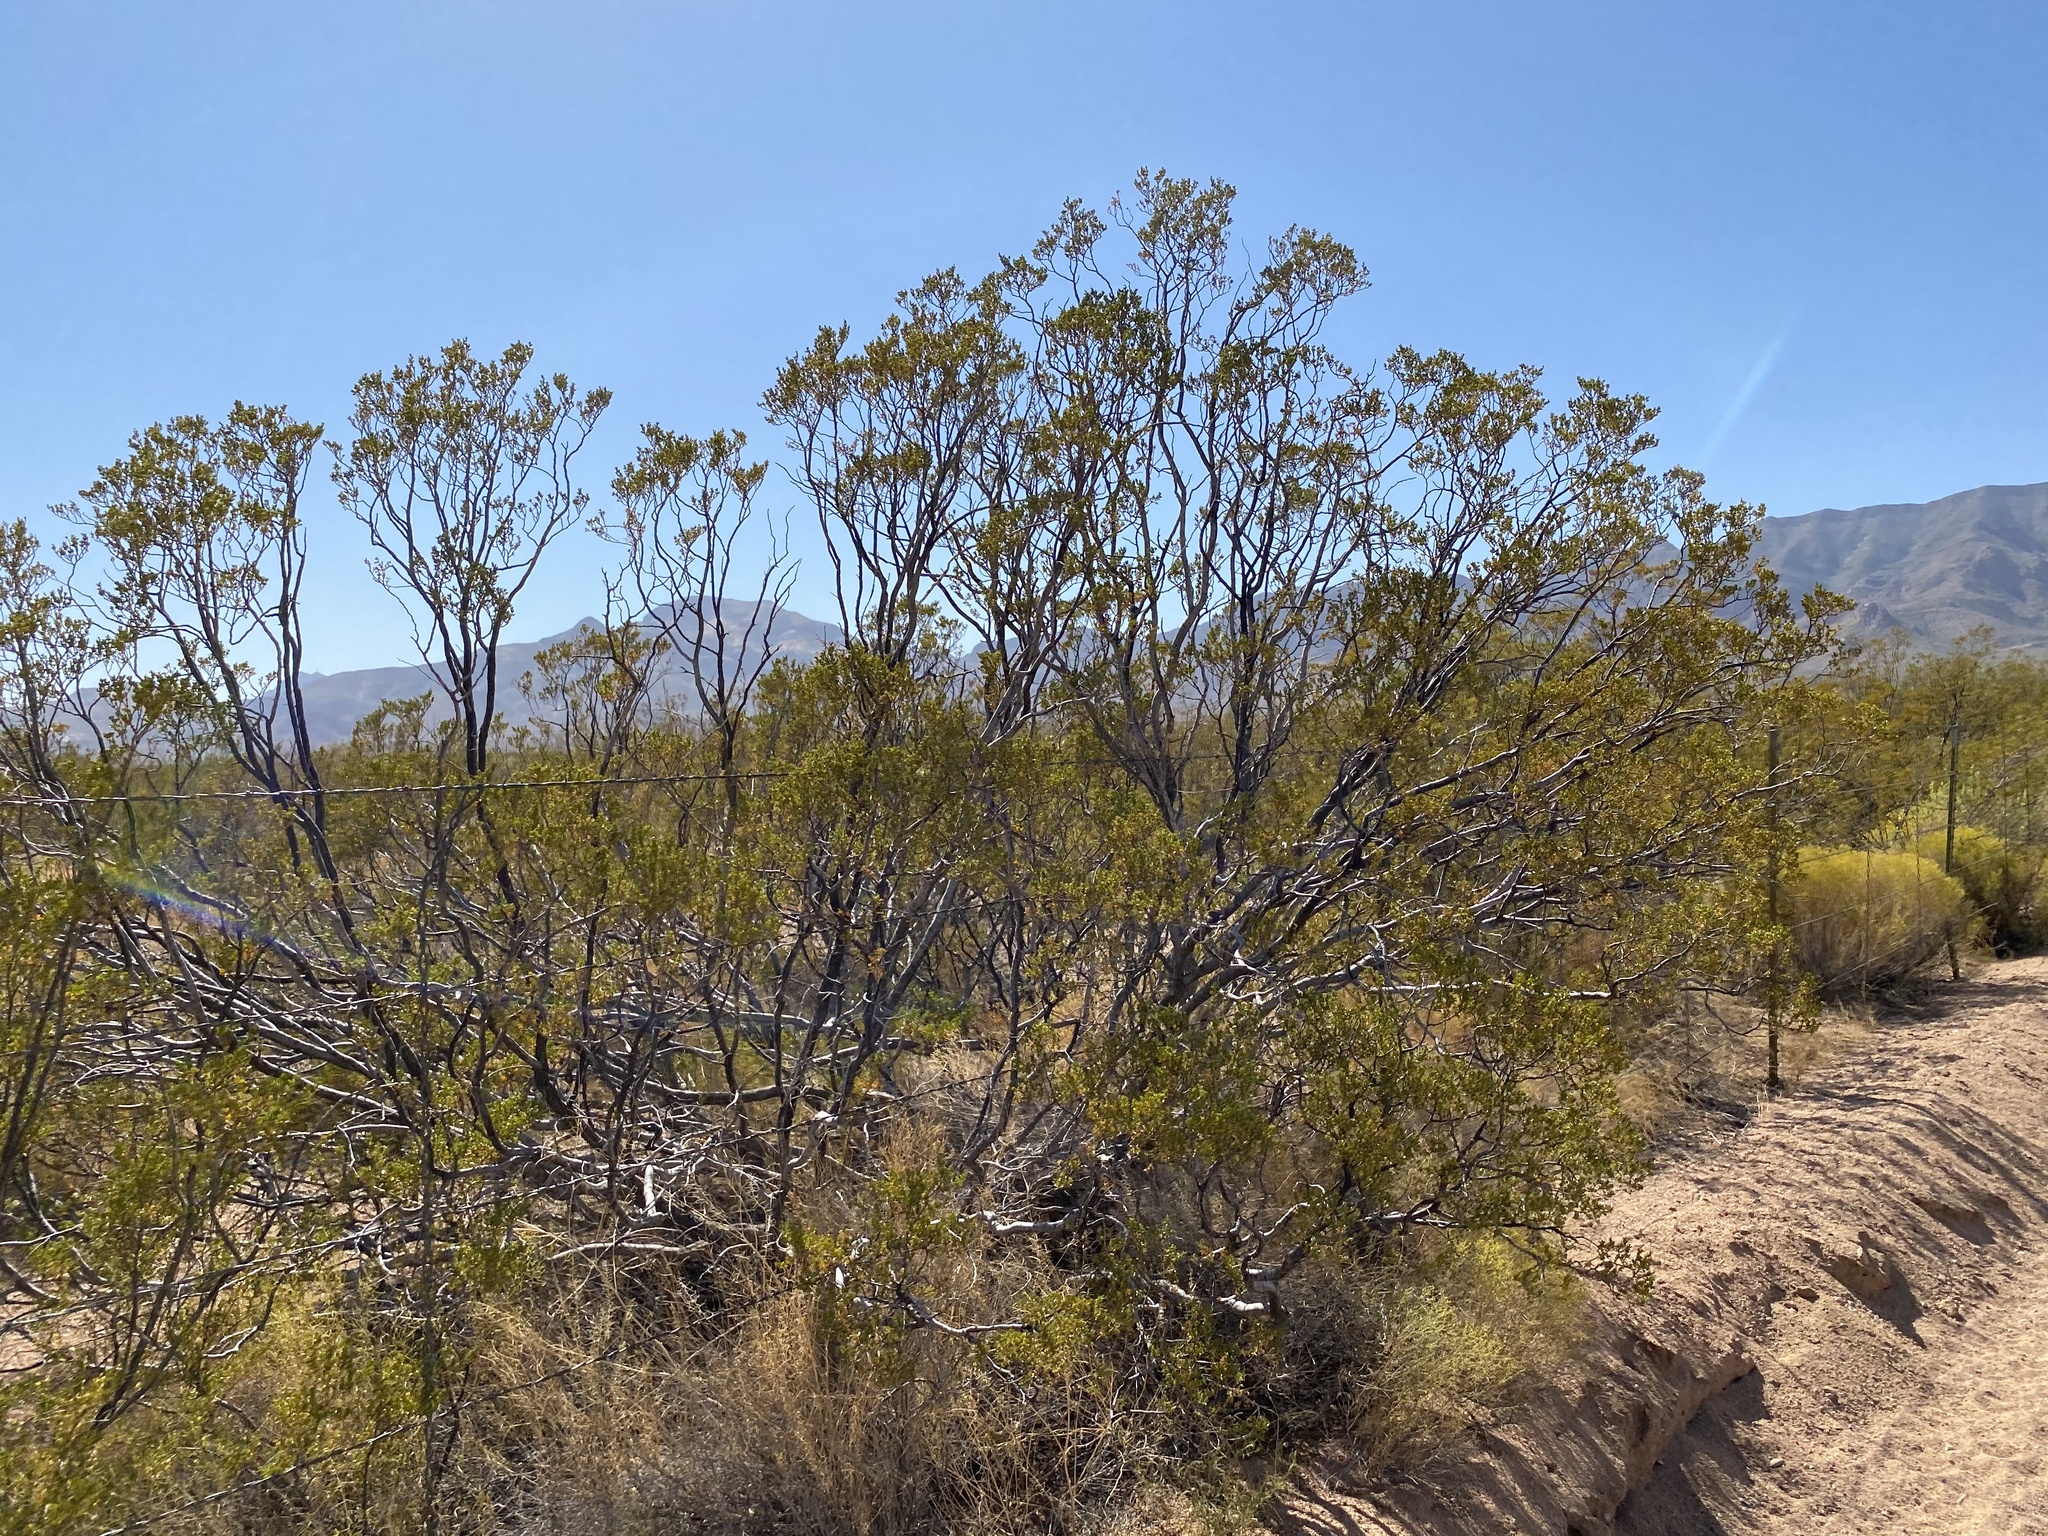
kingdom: Plantae
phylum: Tracheophyta
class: Magnoliopsida
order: Zygophyllales
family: Zygophyllaceae
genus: Larrea
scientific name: Larrea tridentata
